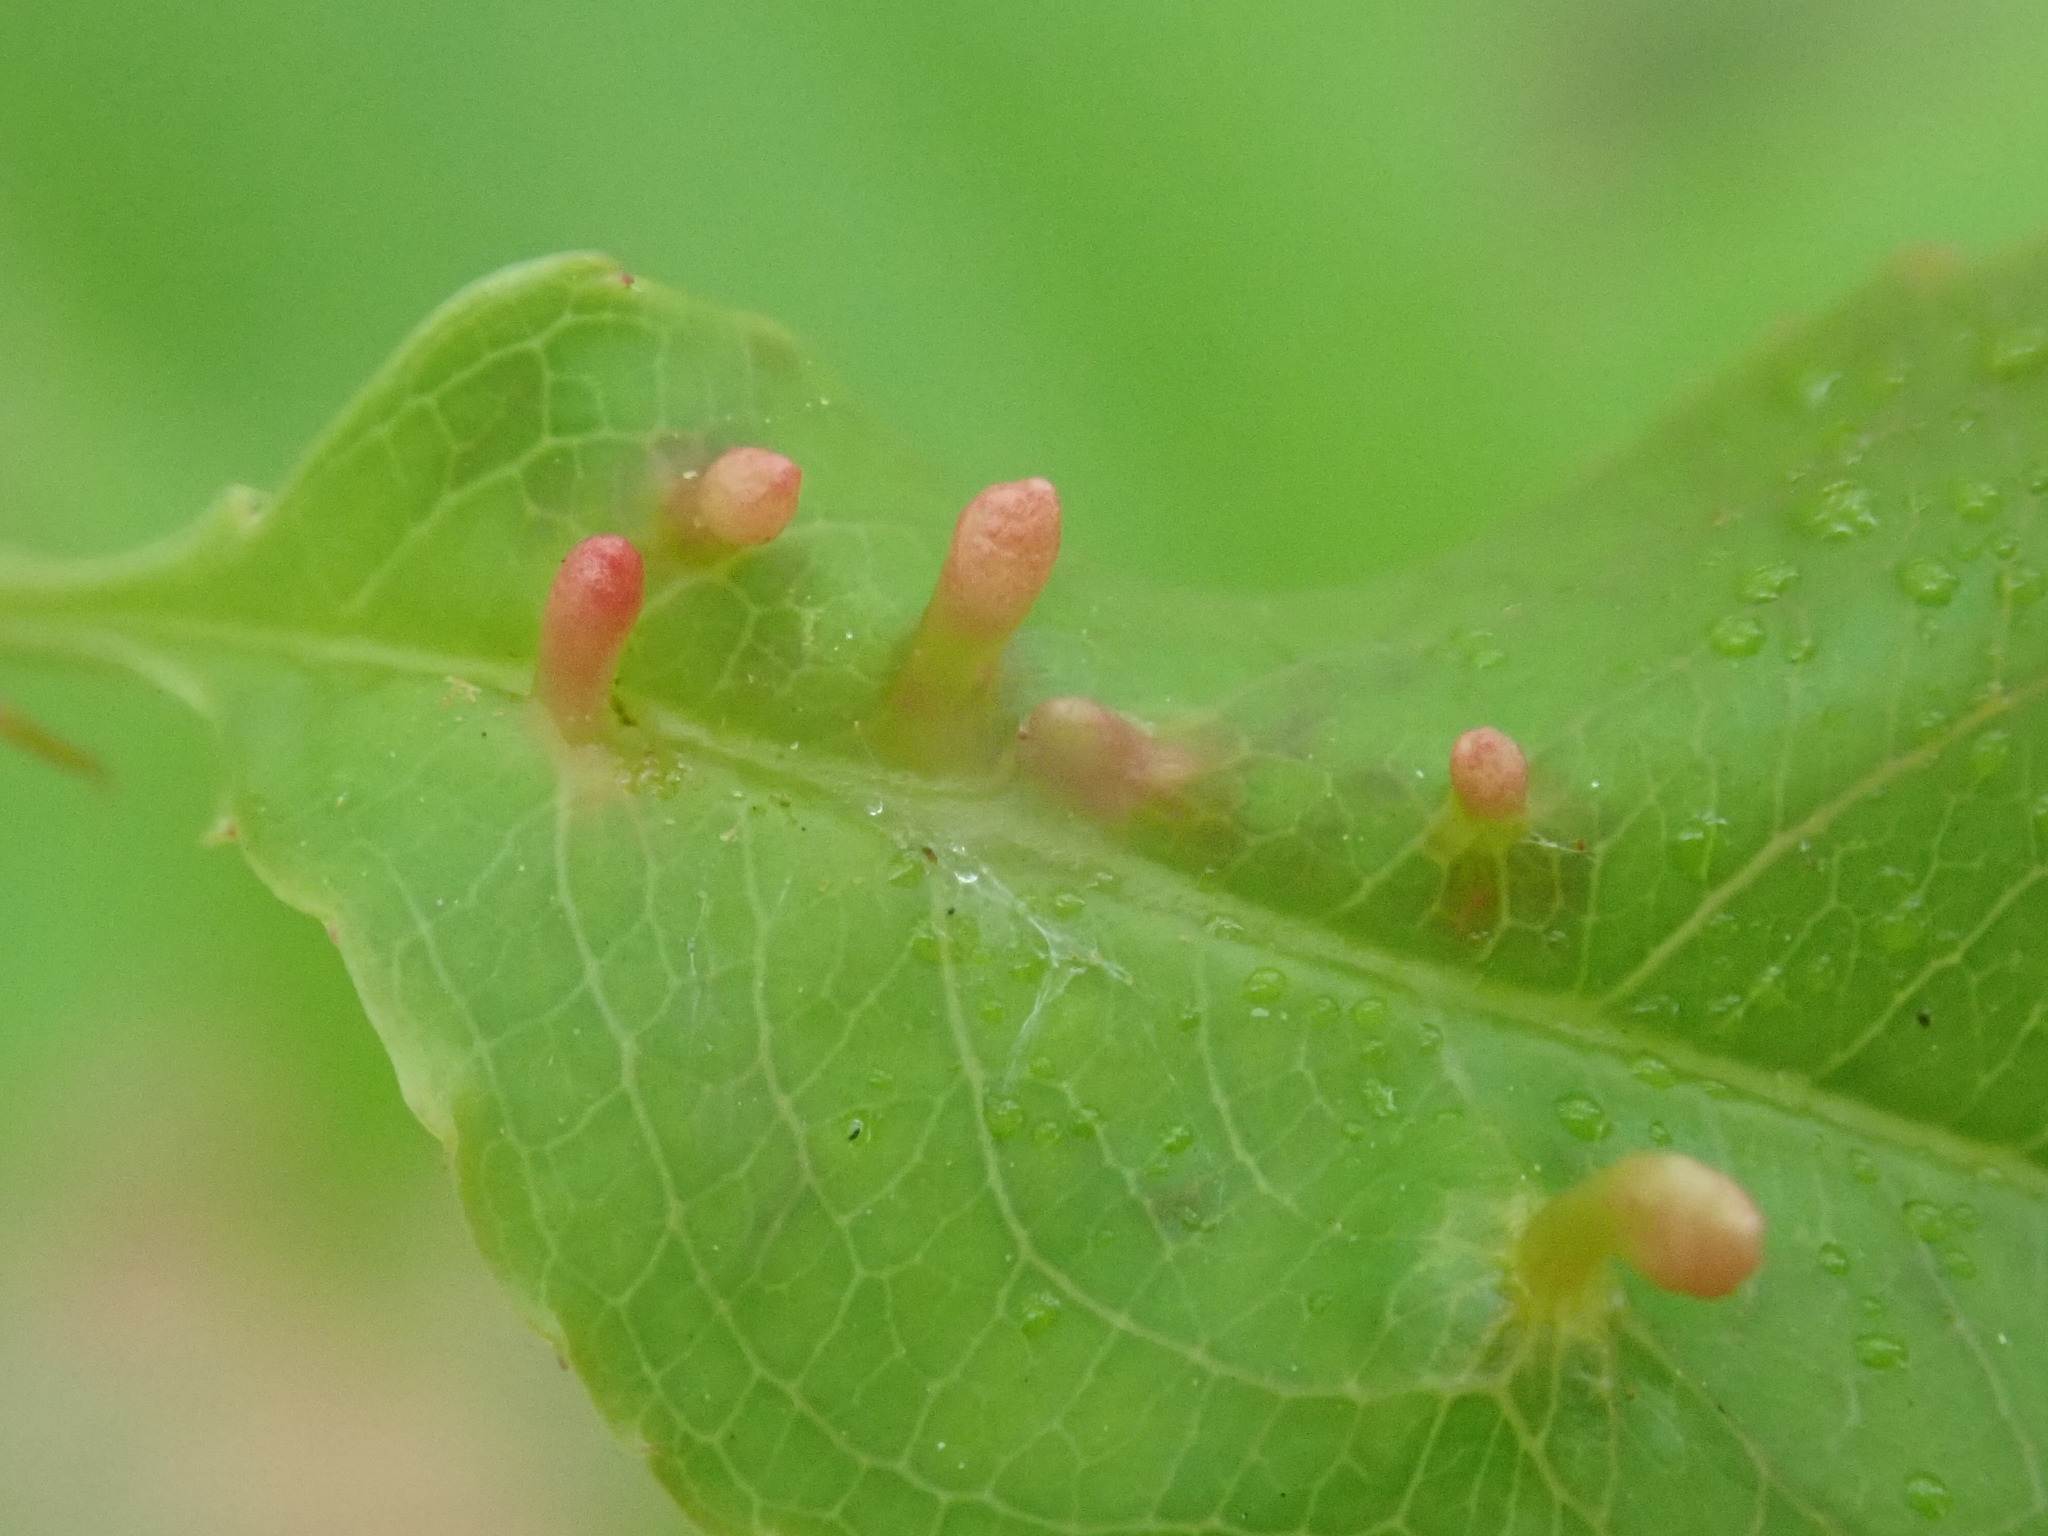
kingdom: Animalia
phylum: Arthropoda
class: Arachnida
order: Trombidiformes
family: Eriophyidae
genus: Eriophyes
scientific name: Eriophyes
